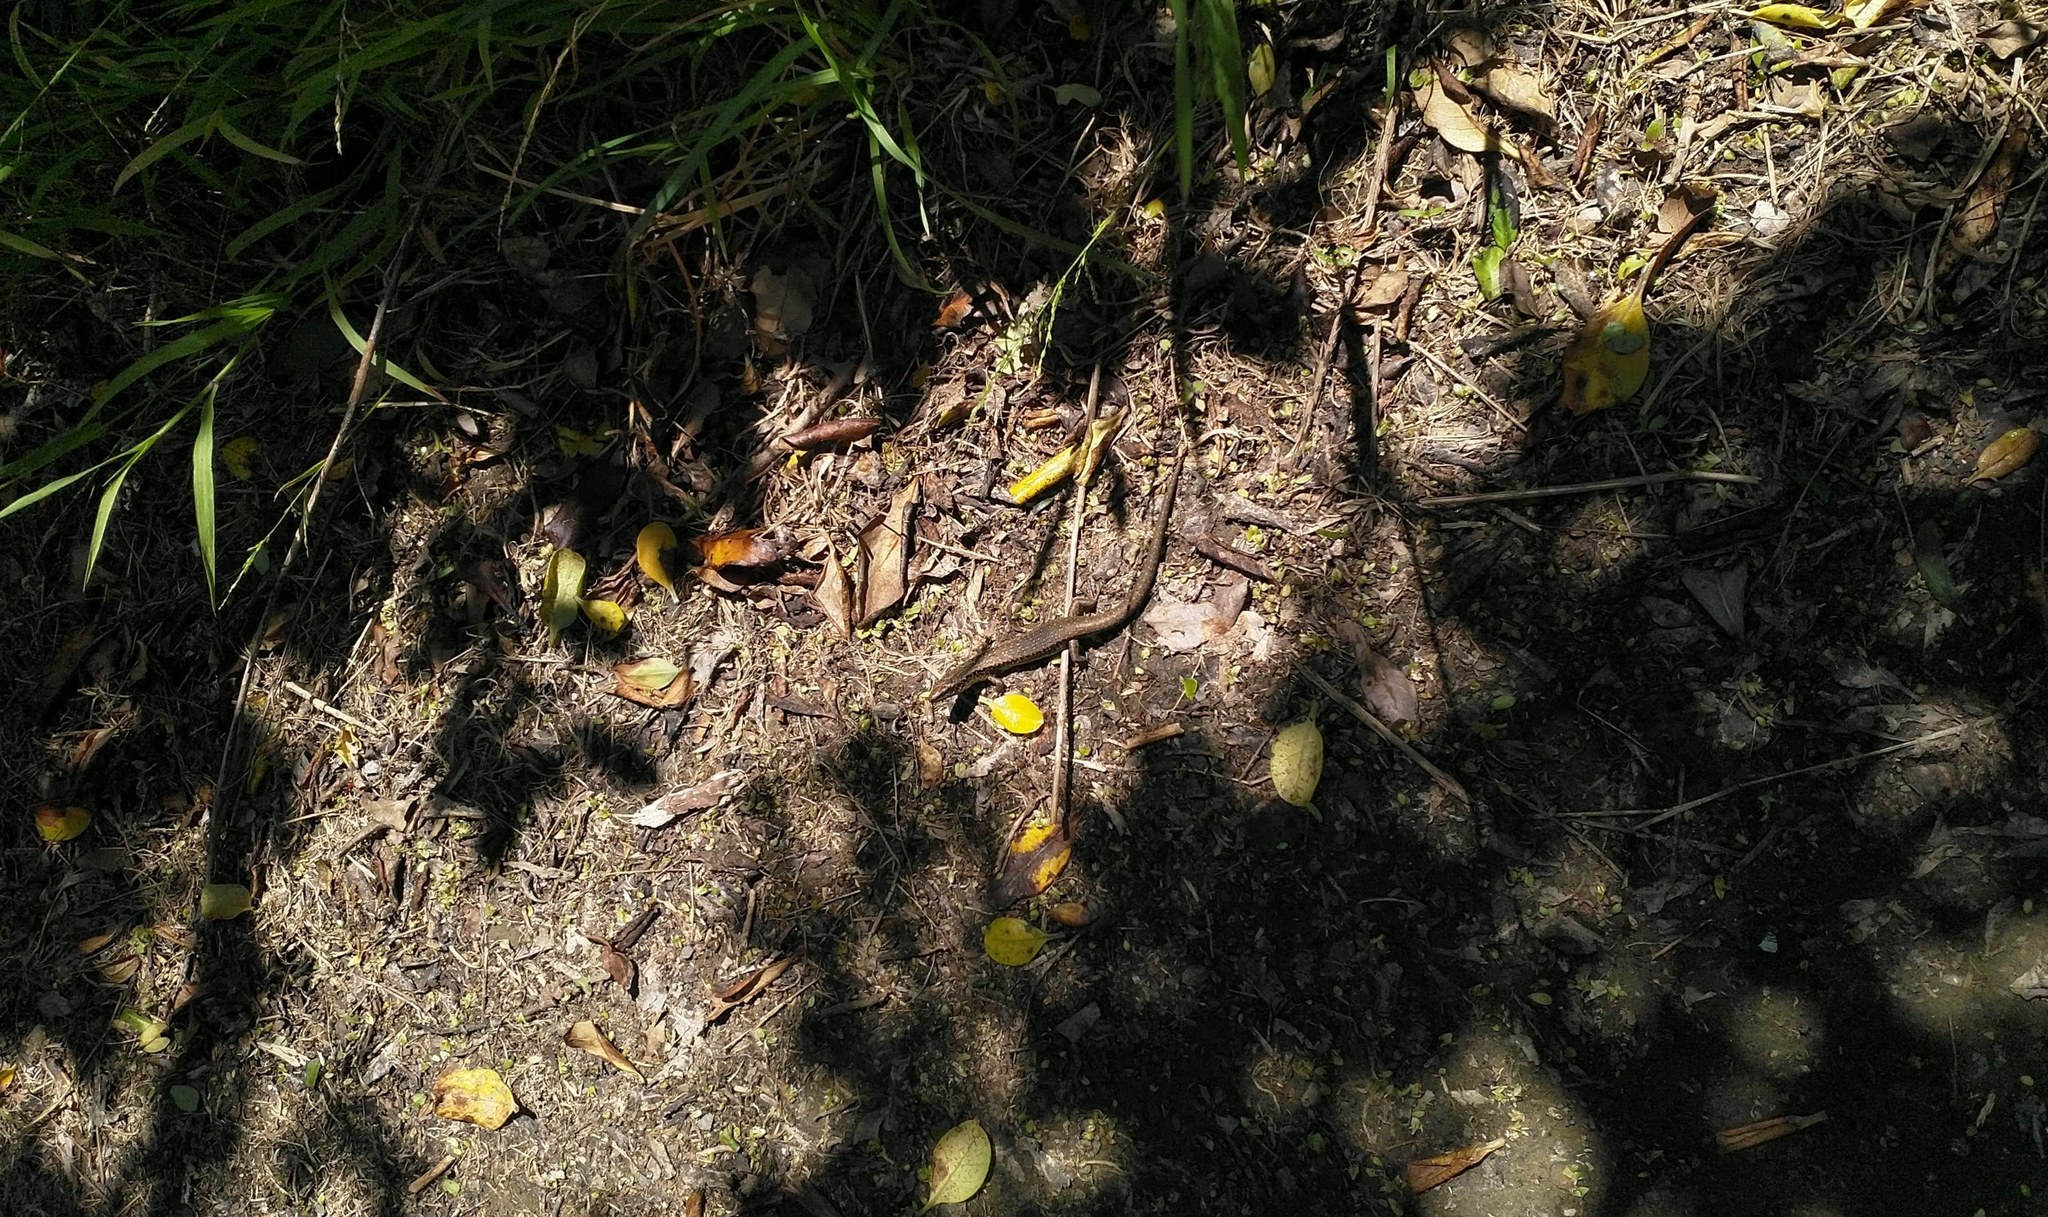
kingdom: Animalia
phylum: Chordata
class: Squamata
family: Scincidae
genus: Oligosoma
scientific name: Oligosoma kokowai
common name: Northern spotted skink
